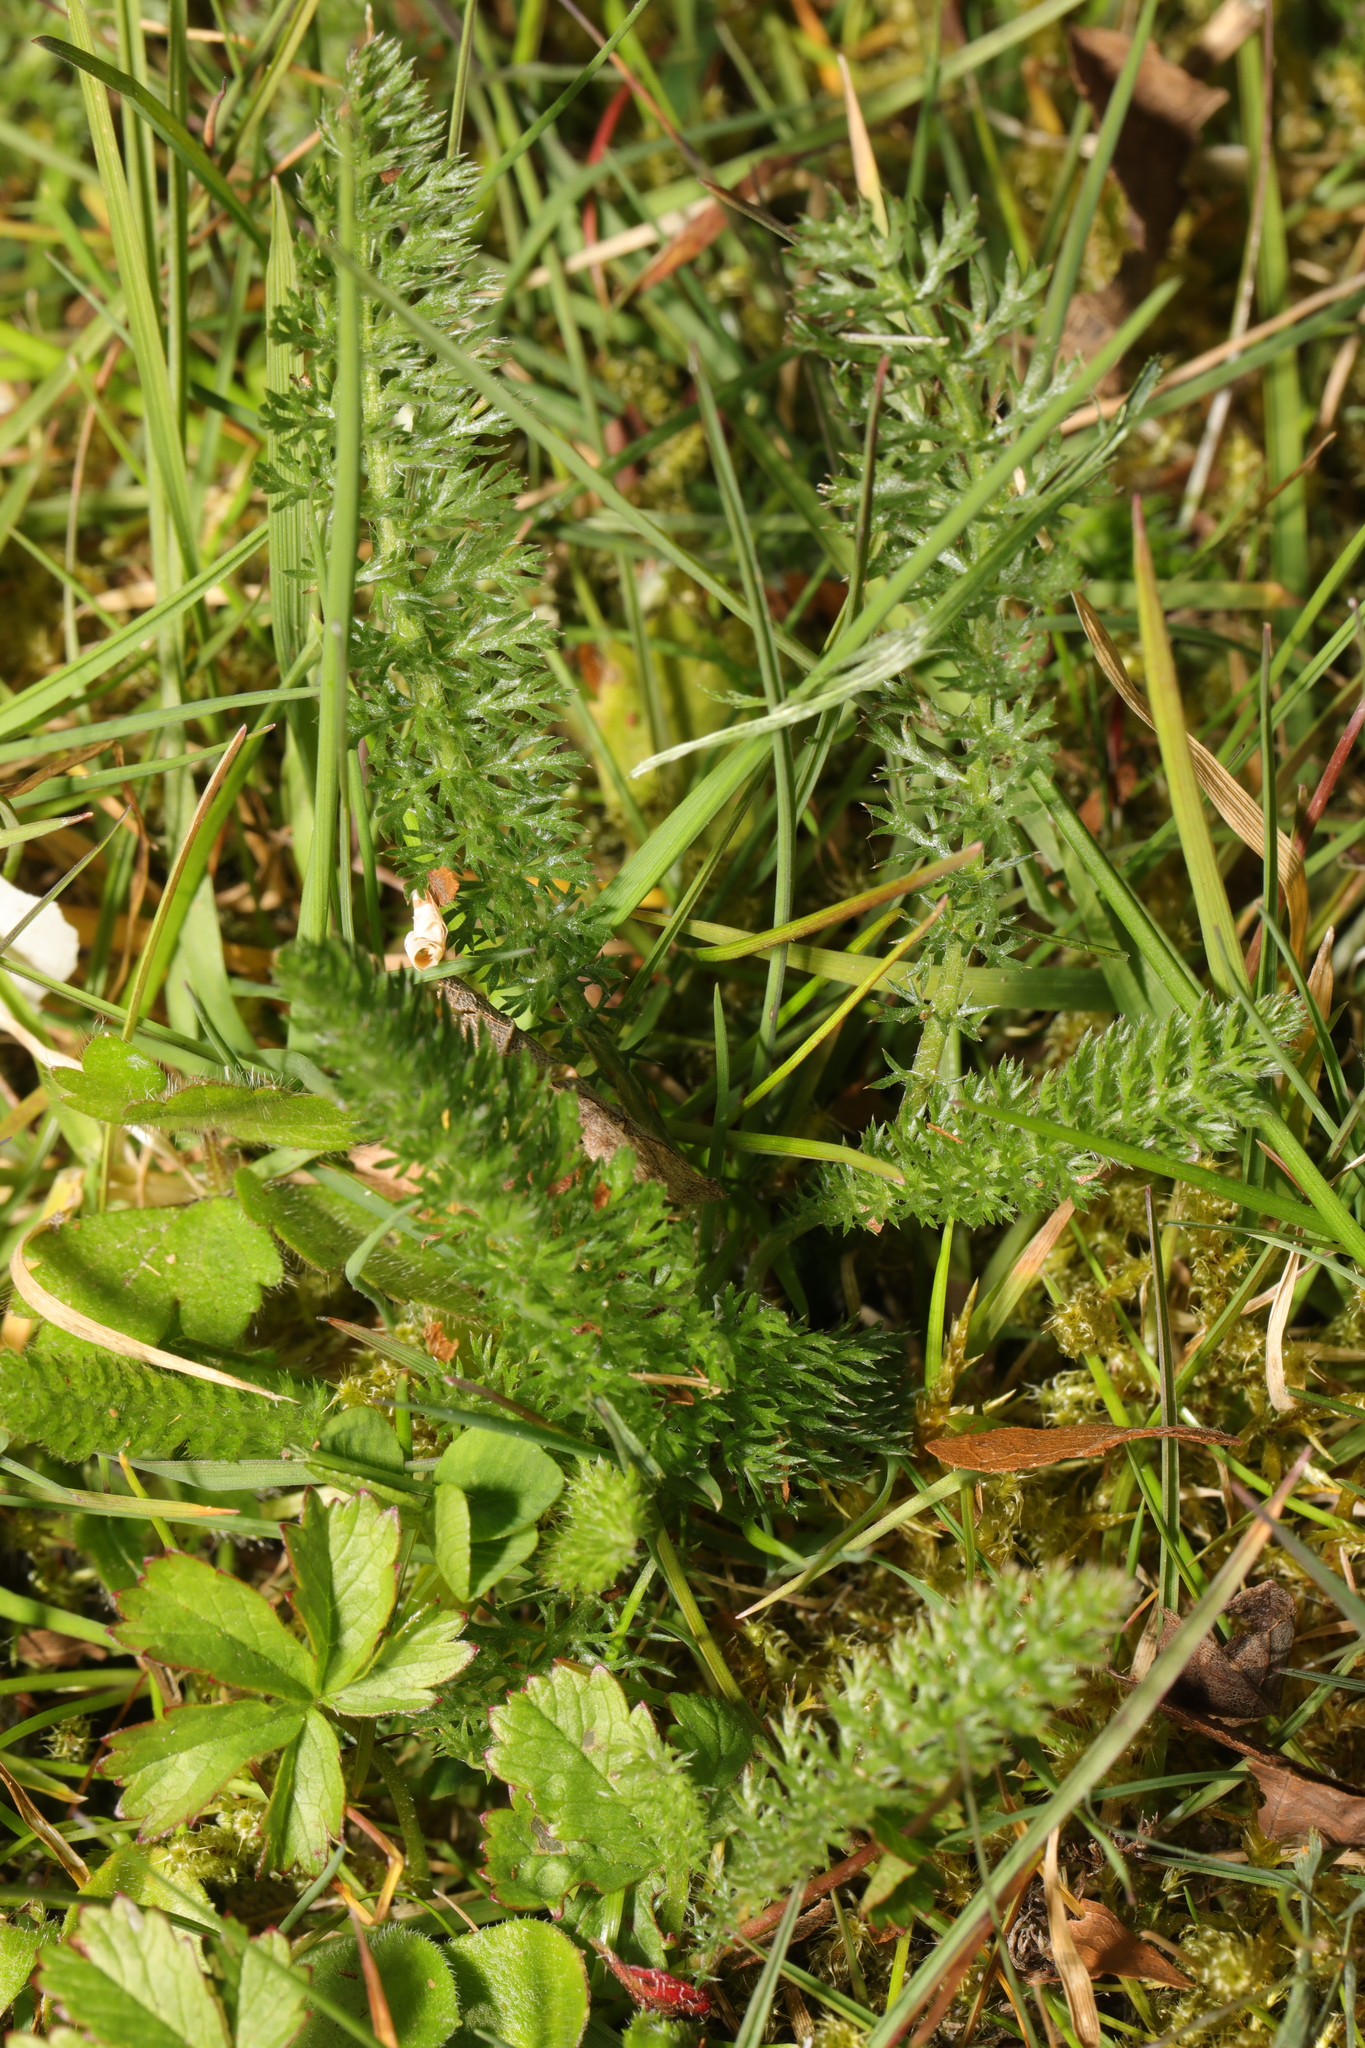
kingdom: Plantae
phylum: Tracheophyta
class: Magnoliopsida
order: Asterales
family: Asteraceae
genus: Achillea
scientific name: Achillea millefolium
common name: Yarrow
